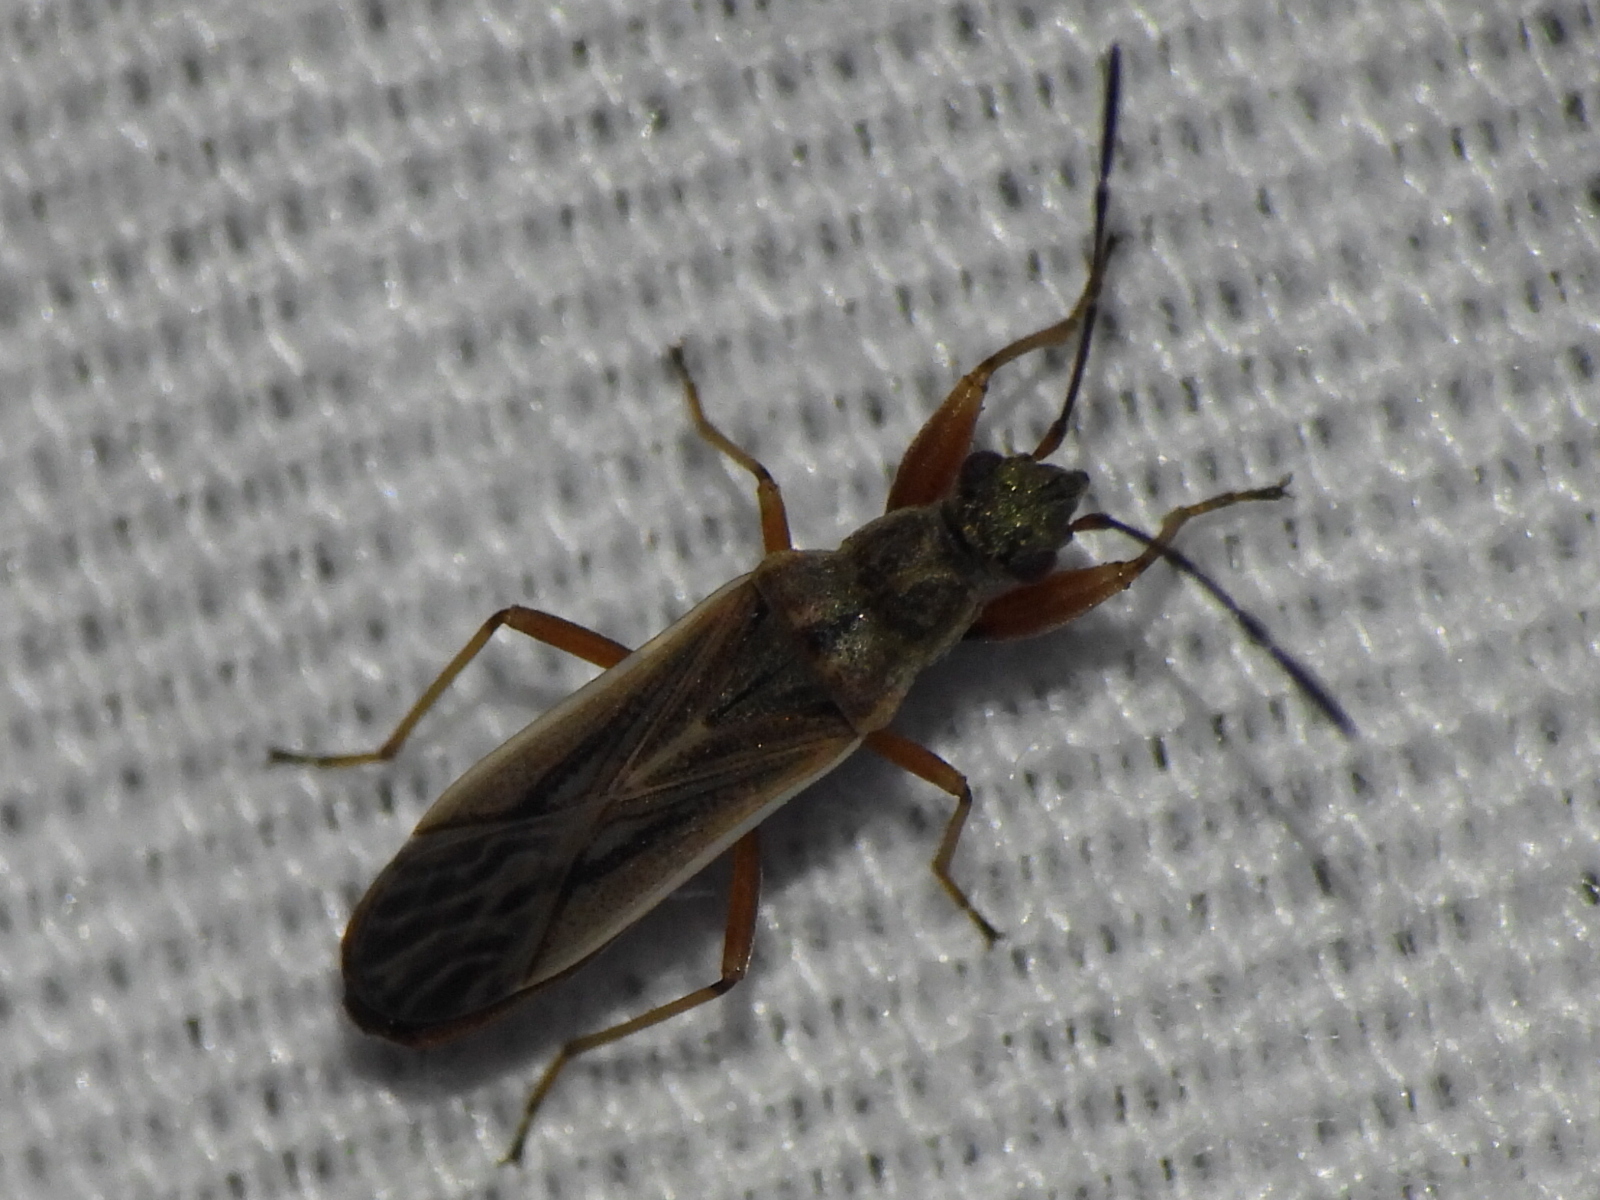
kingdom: Animalia
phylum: Arthropoda
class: Insecta
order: Hemiptera
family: Rhyparochromidae
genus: Paromius
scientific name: Paromius longulus
